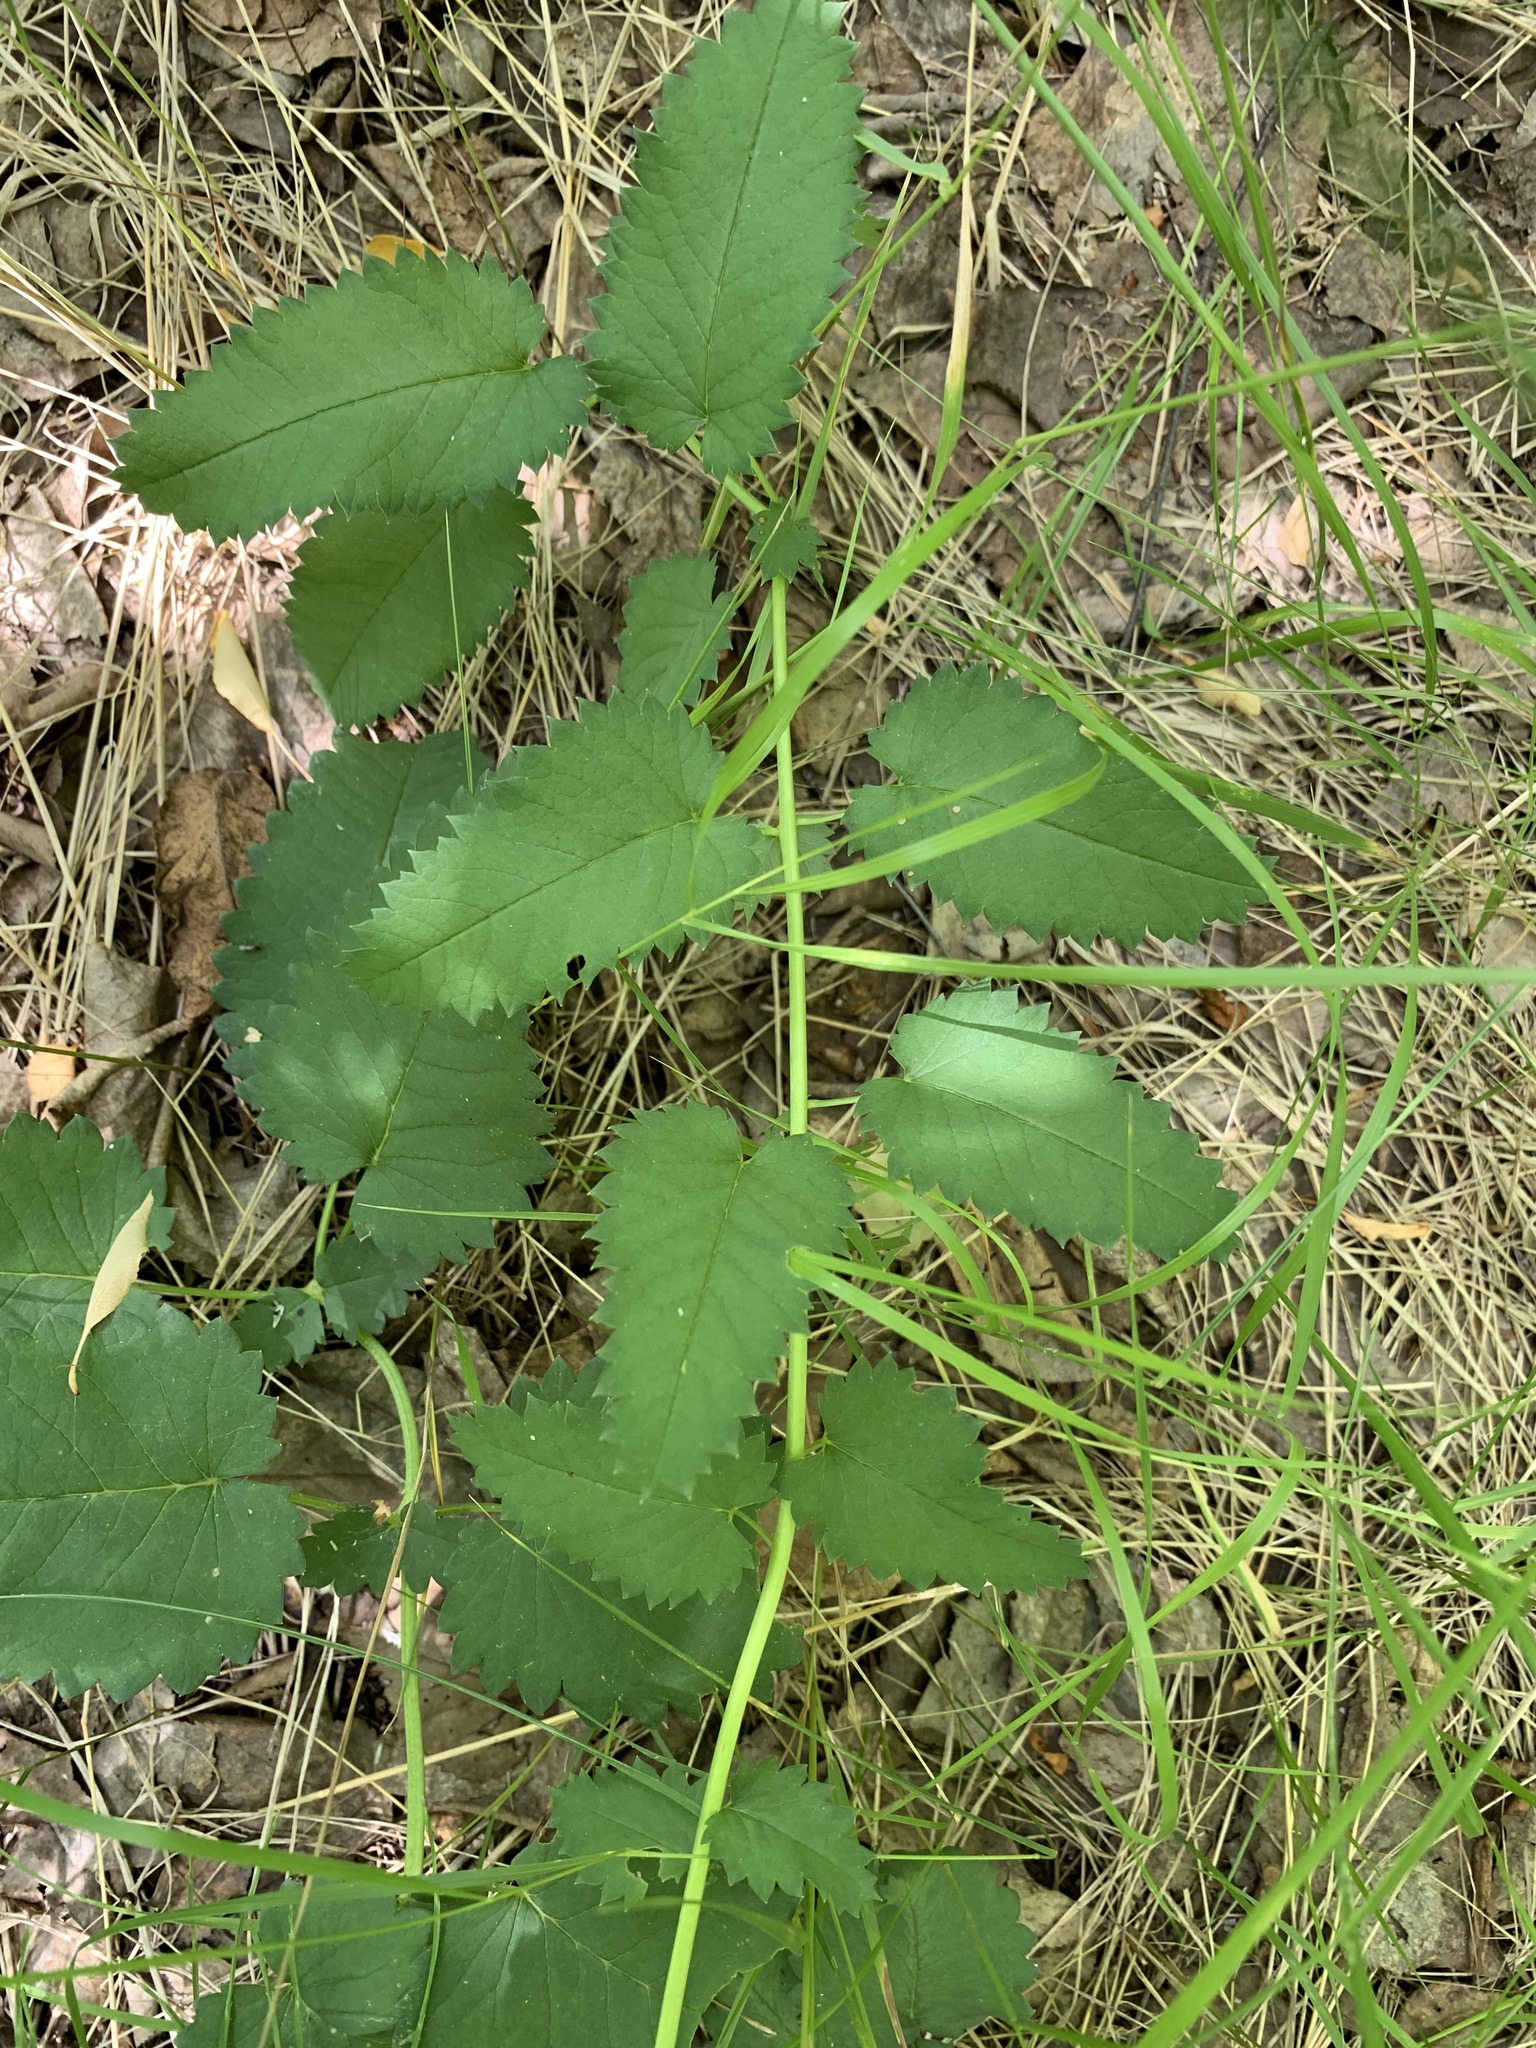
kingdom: Plantae
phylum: Tracheophyta
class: Magnoliopsida
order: Rosales
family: Rosaceae
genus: Sanguisorba
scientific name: Sanguisorba officinalis
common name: Great burnet
